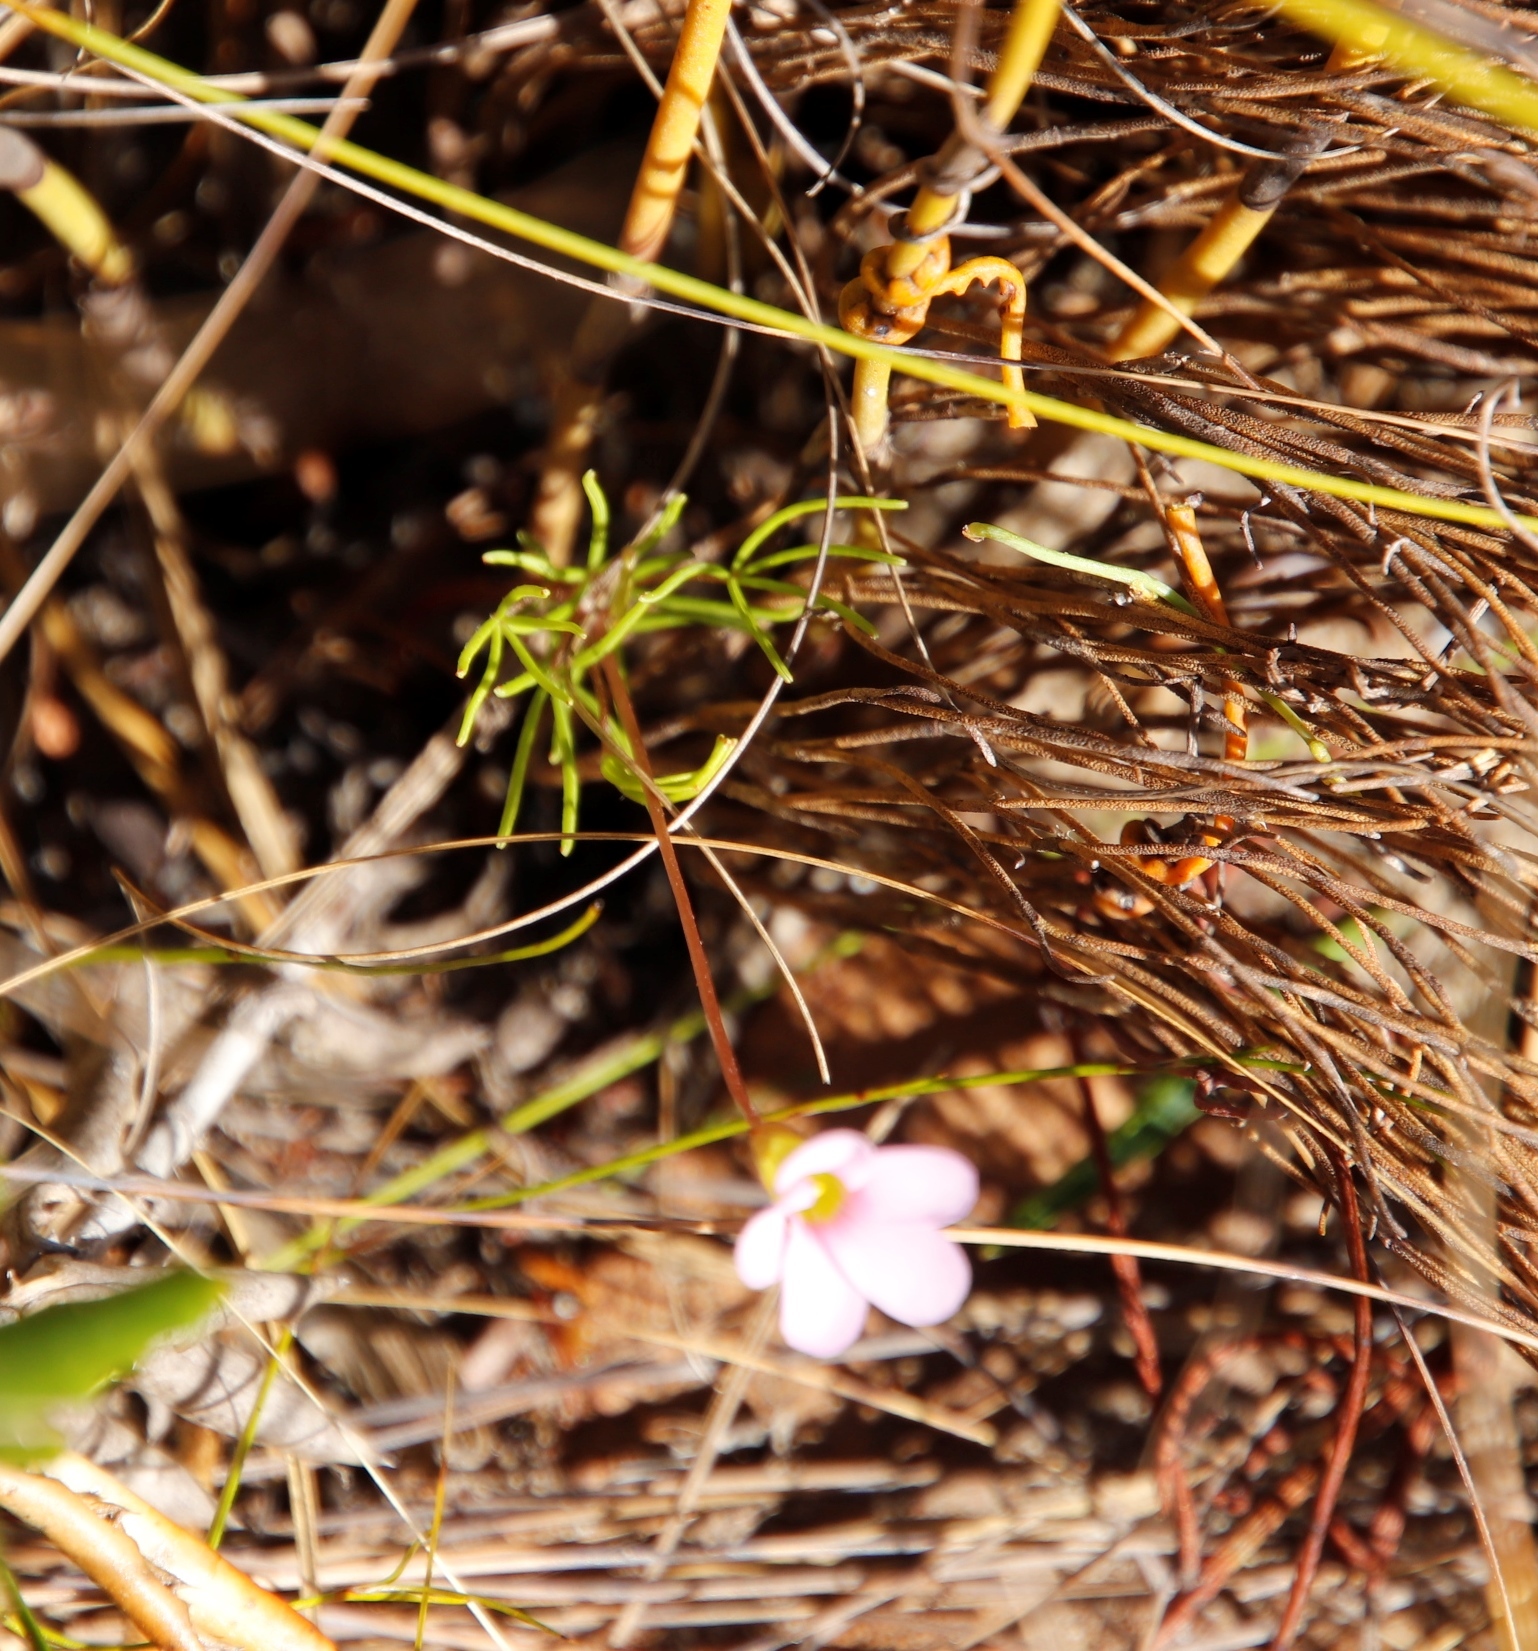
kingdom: Plantae
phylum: Tracheophyta
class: Magnoliopsida
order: Oxalidales
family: Oxalidaceae
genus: Oxalis
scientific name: Oxalis polyphylla
